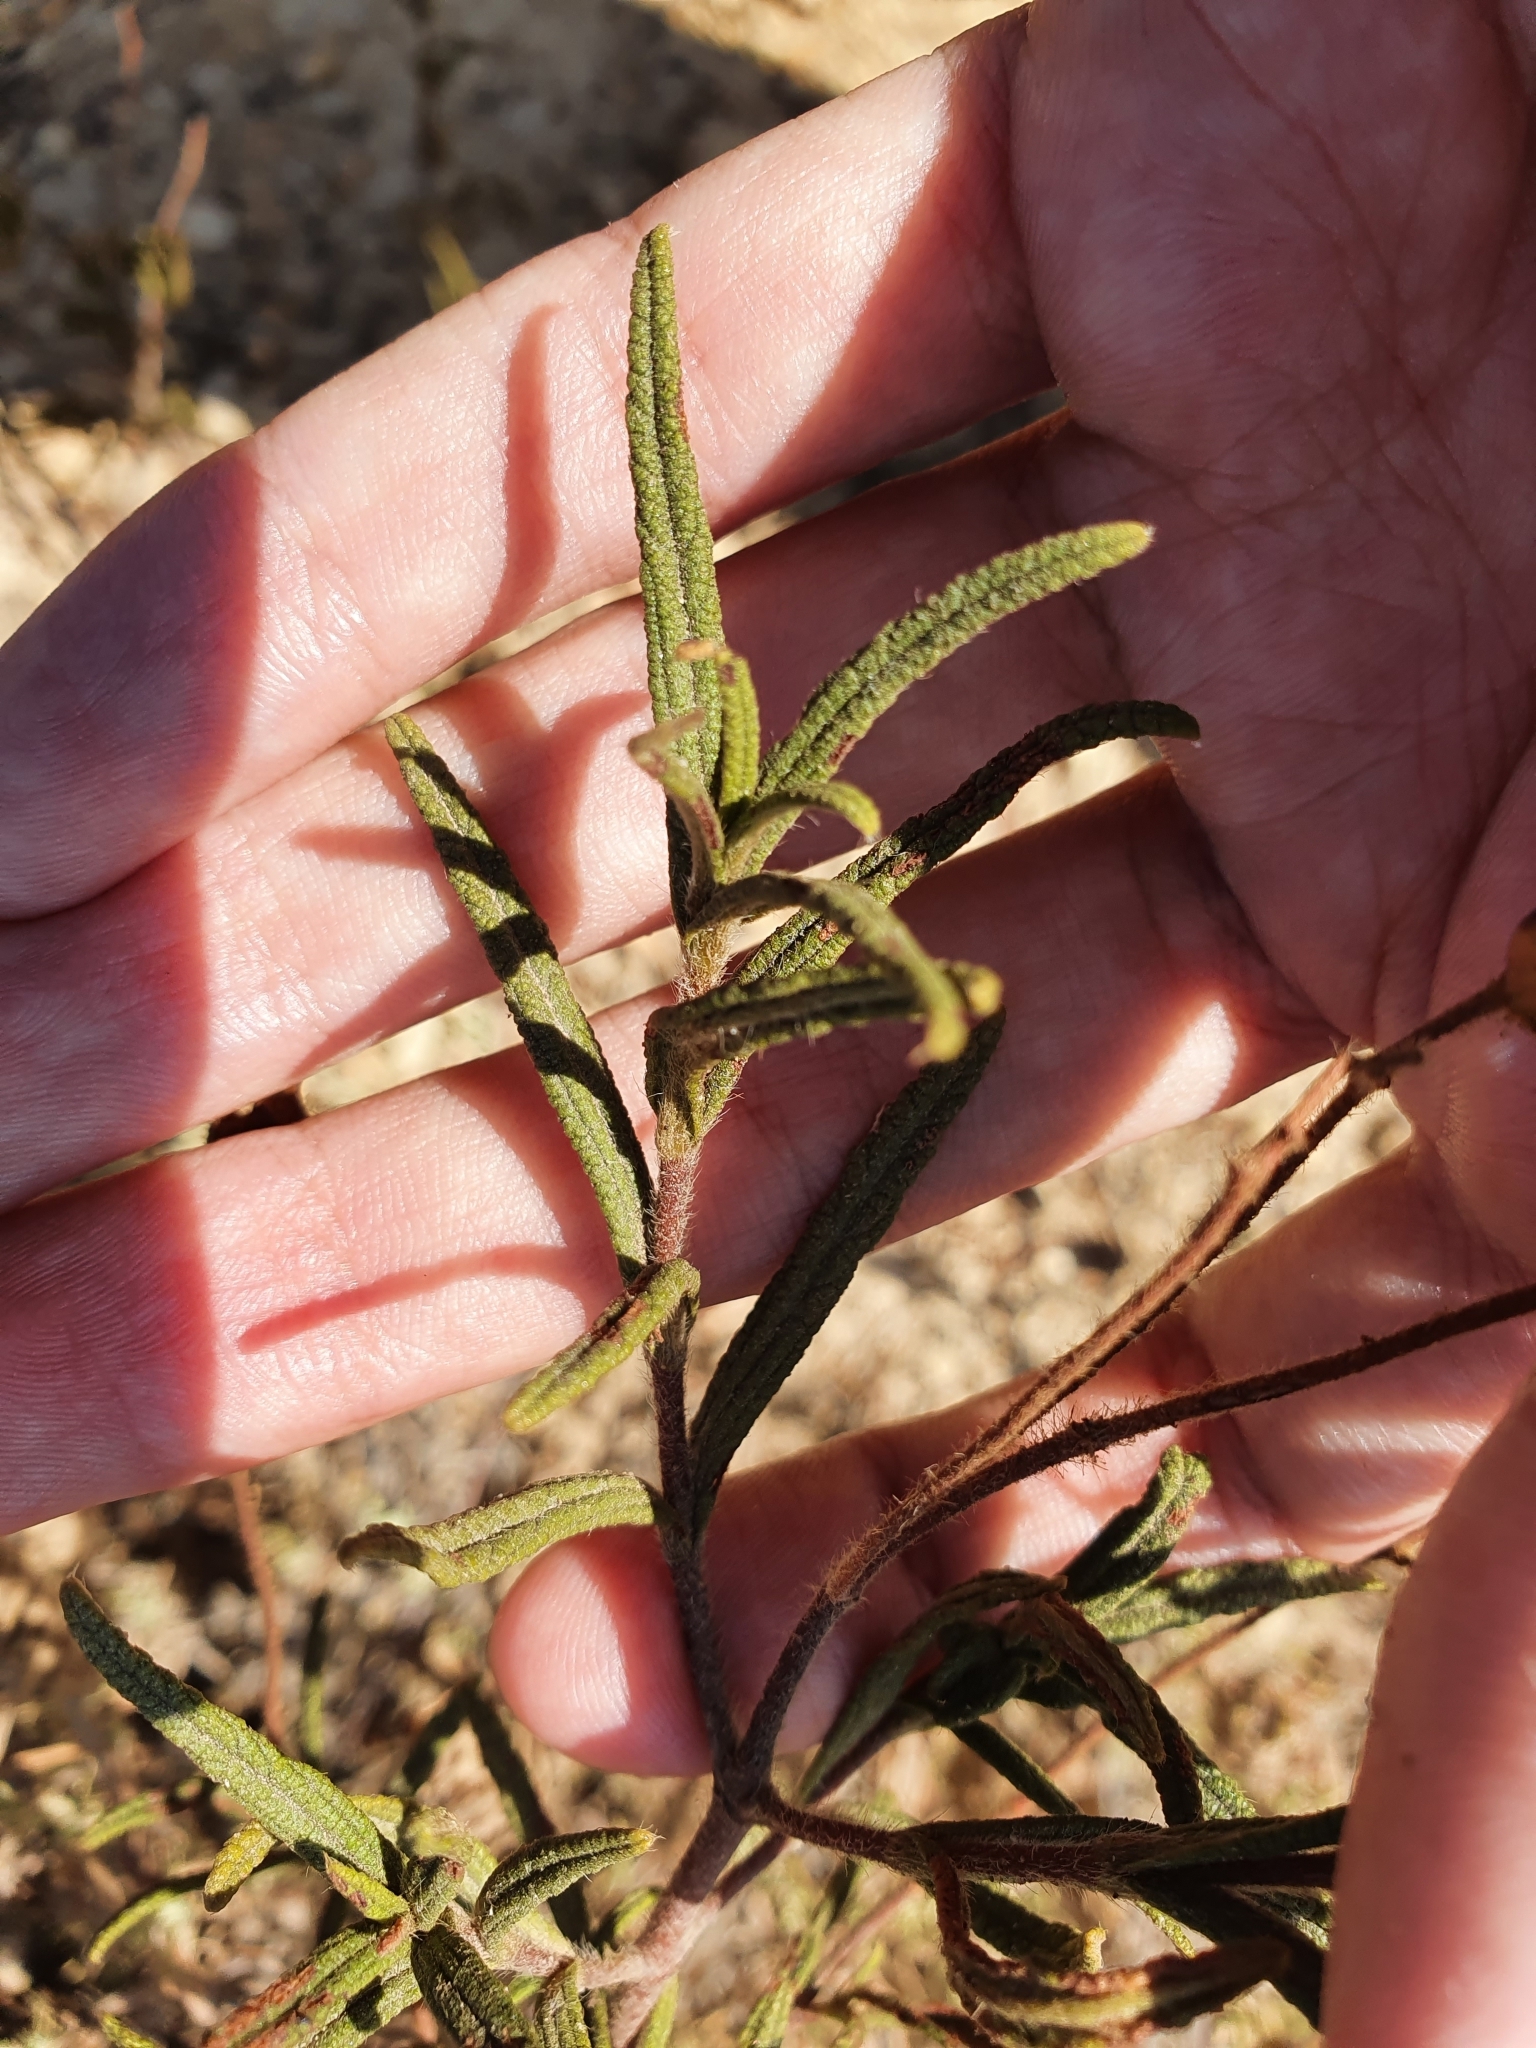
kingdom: Plantae
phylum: Tracheophyta
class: Magnoliopsida
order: Malvales
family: Cistaceae
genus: Cistus
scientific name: Cistus monspeliensis
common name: Montpelier cistus
